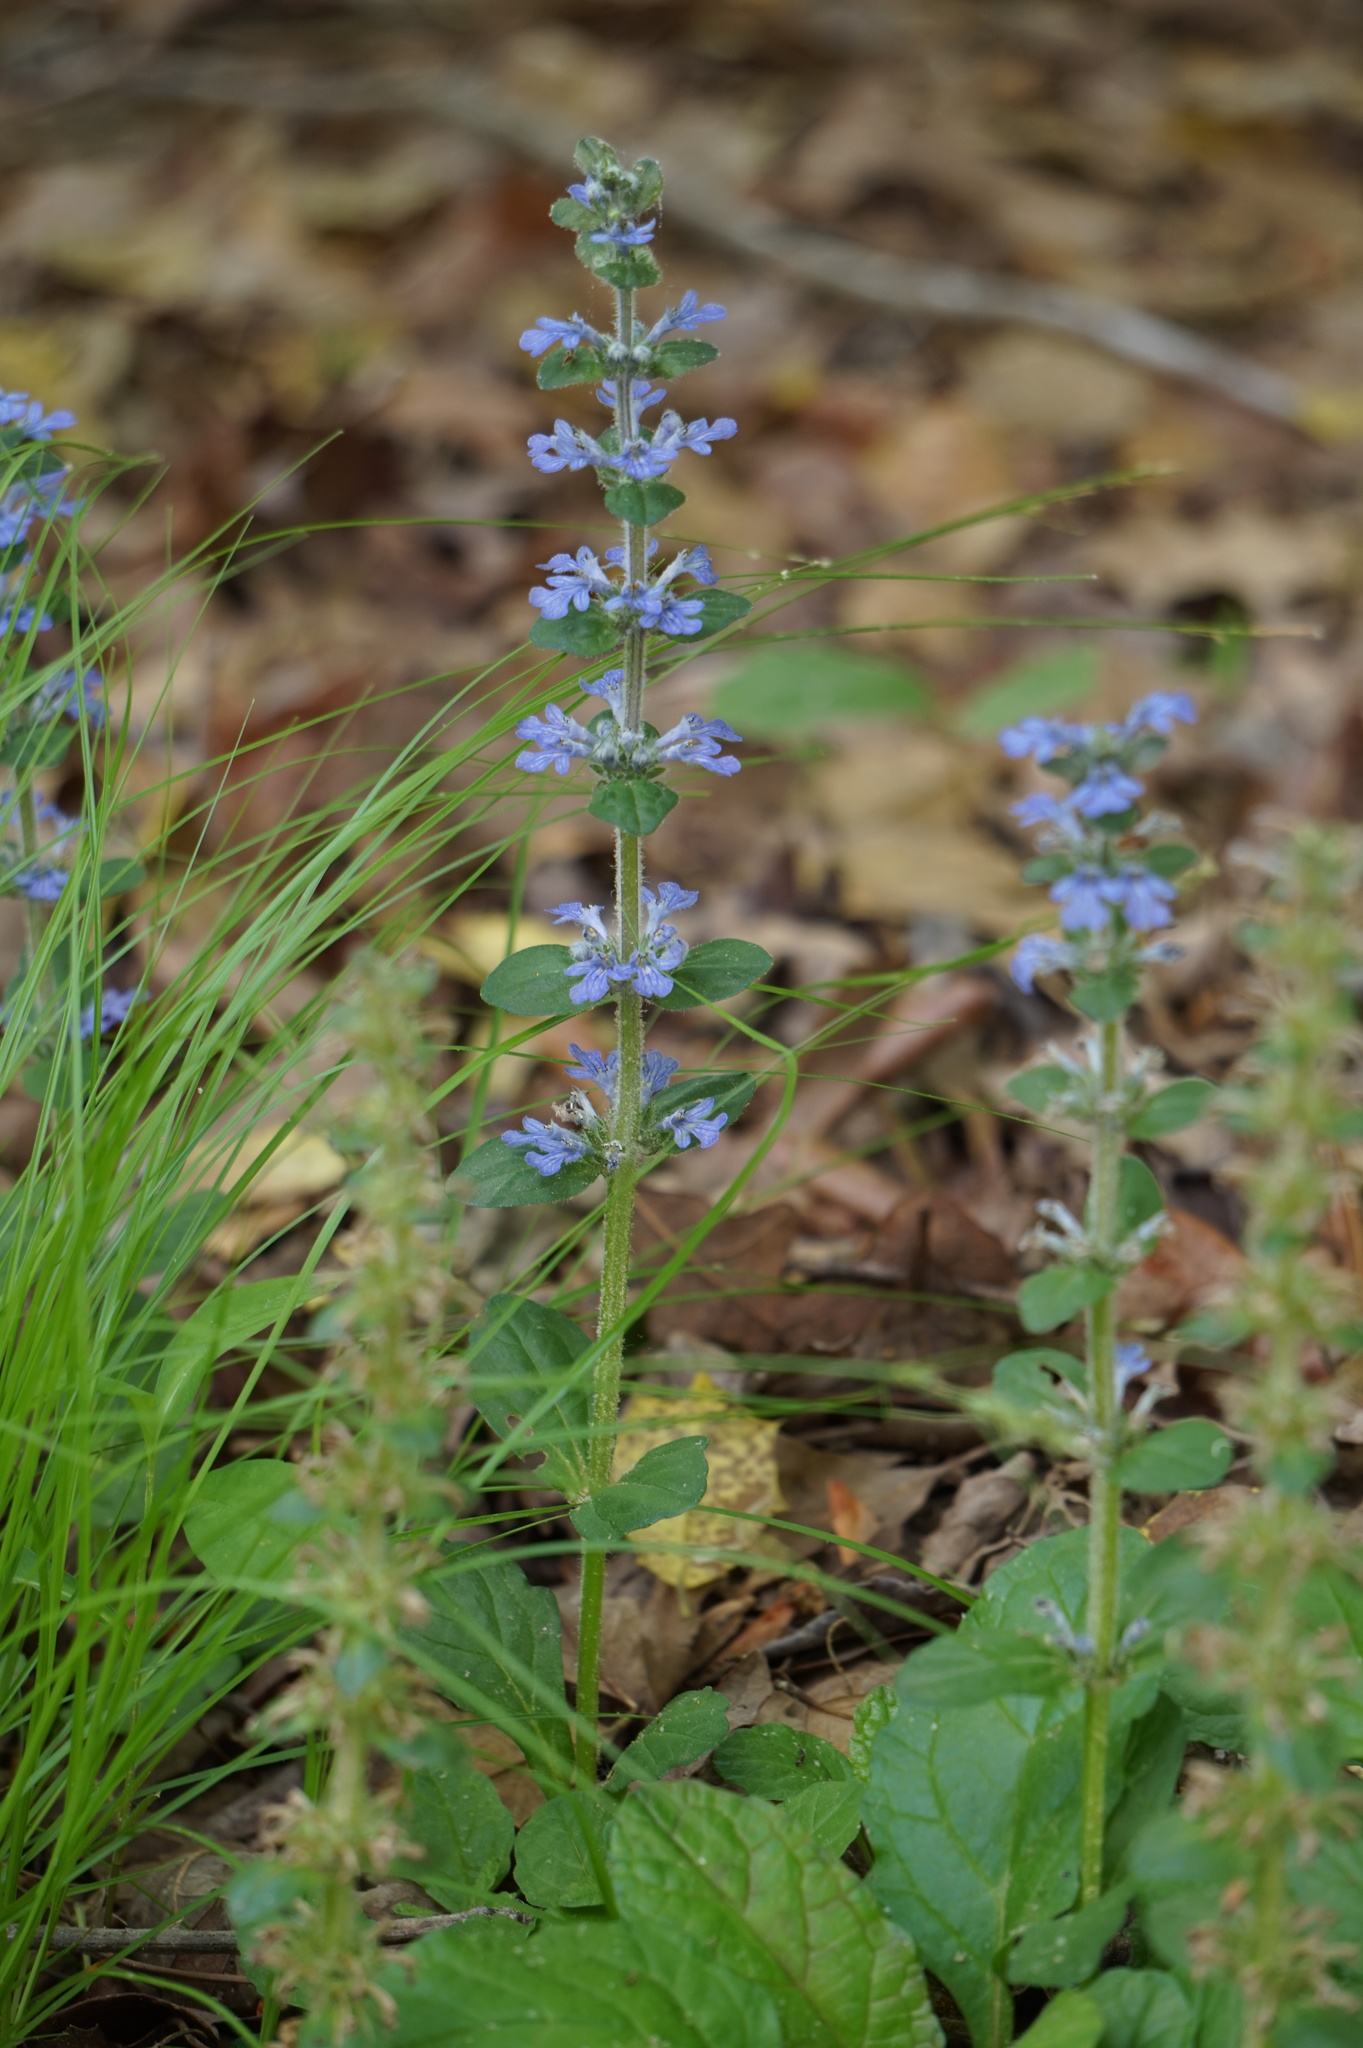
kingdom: Plantae
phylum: Tracheophyta
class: Magnoliopsida
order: Lamiales
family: Lamiaceae
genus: Ajuga
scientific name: Ajuga reptans
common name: Bugle
